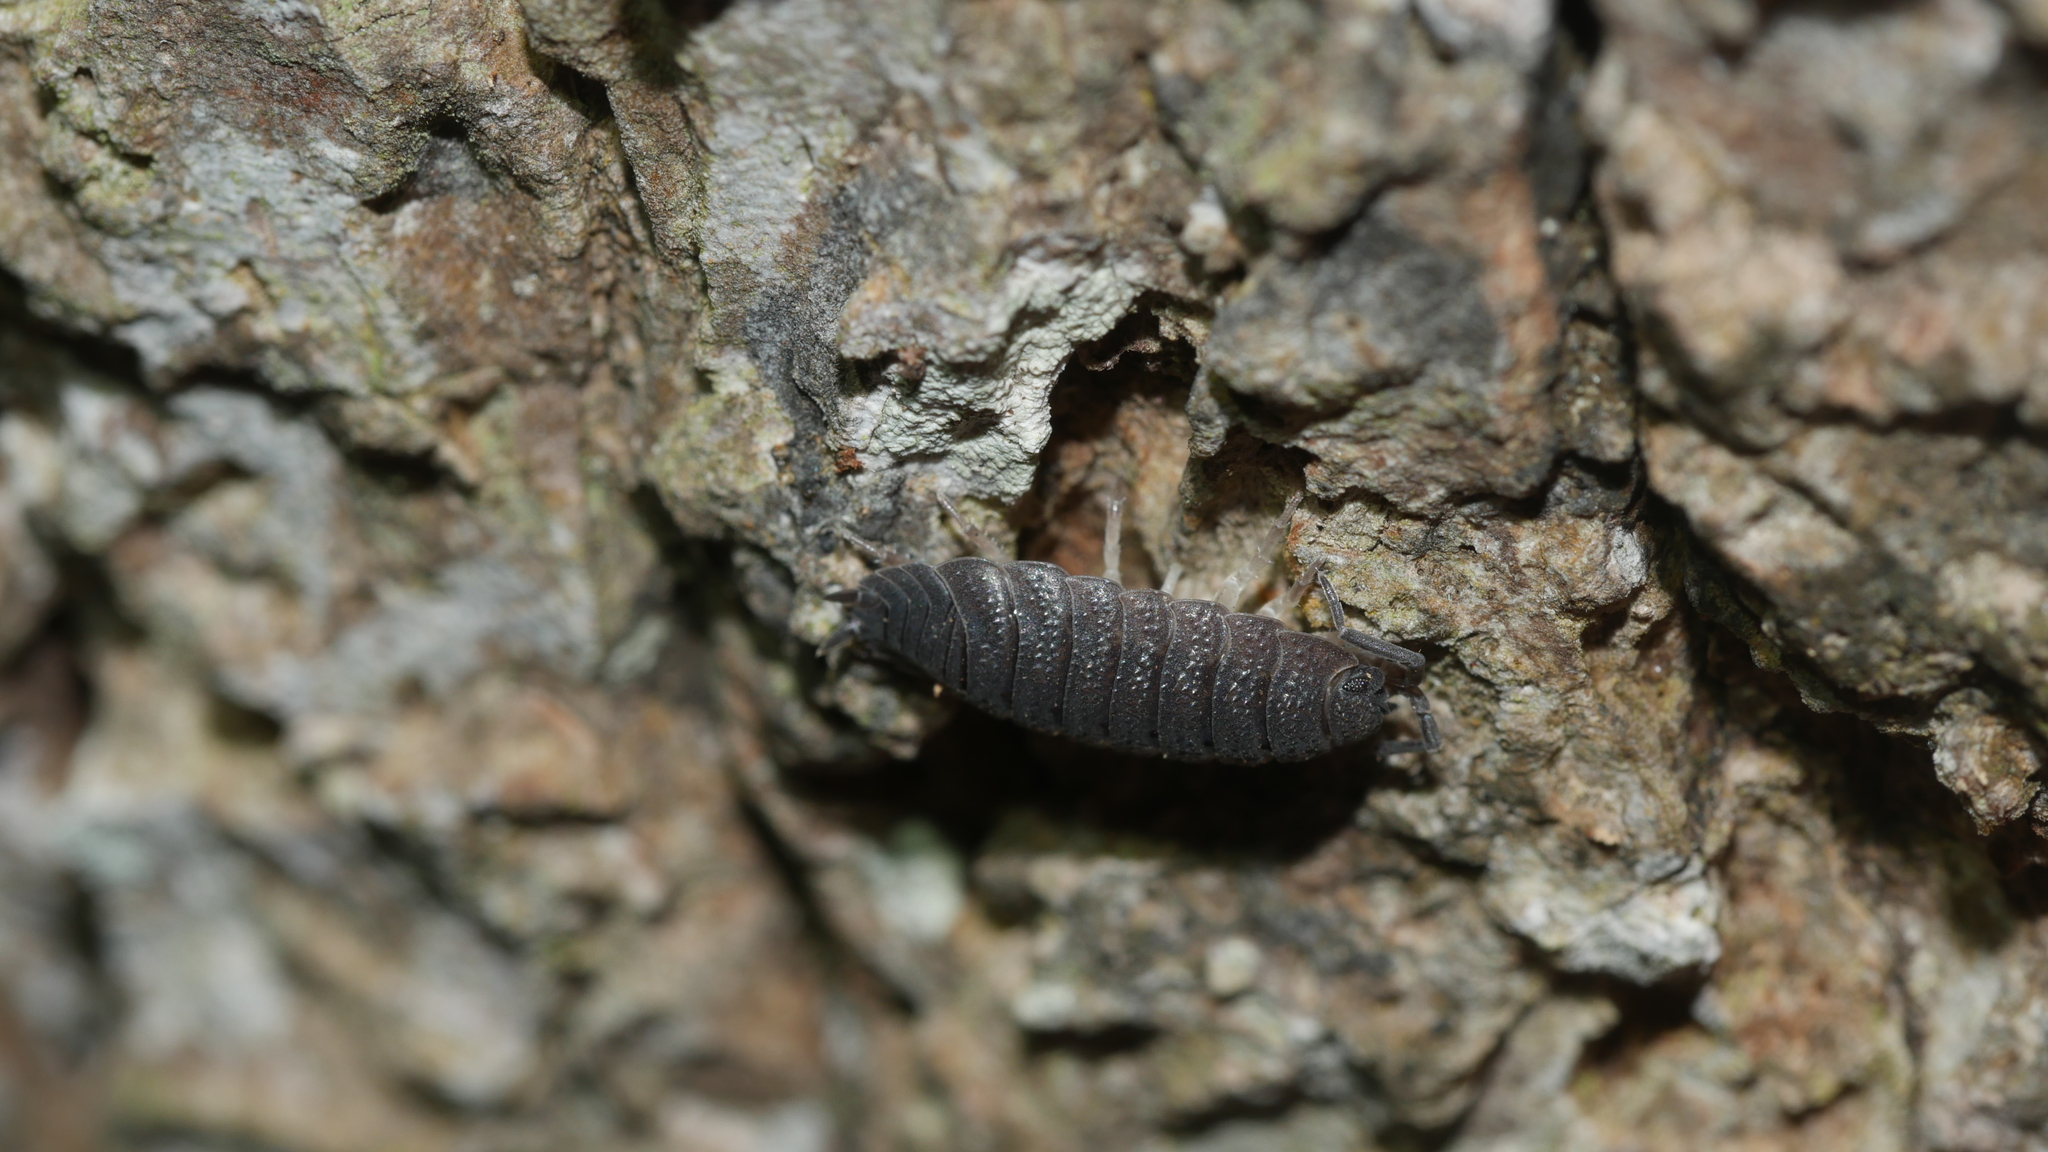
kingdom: Animalia
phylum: Arthropoda
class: Malacostraca
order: Isopoda
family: Porcellionidae
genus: Porcellio
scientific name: Porcellio scaber
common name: Common rough woodlouse
